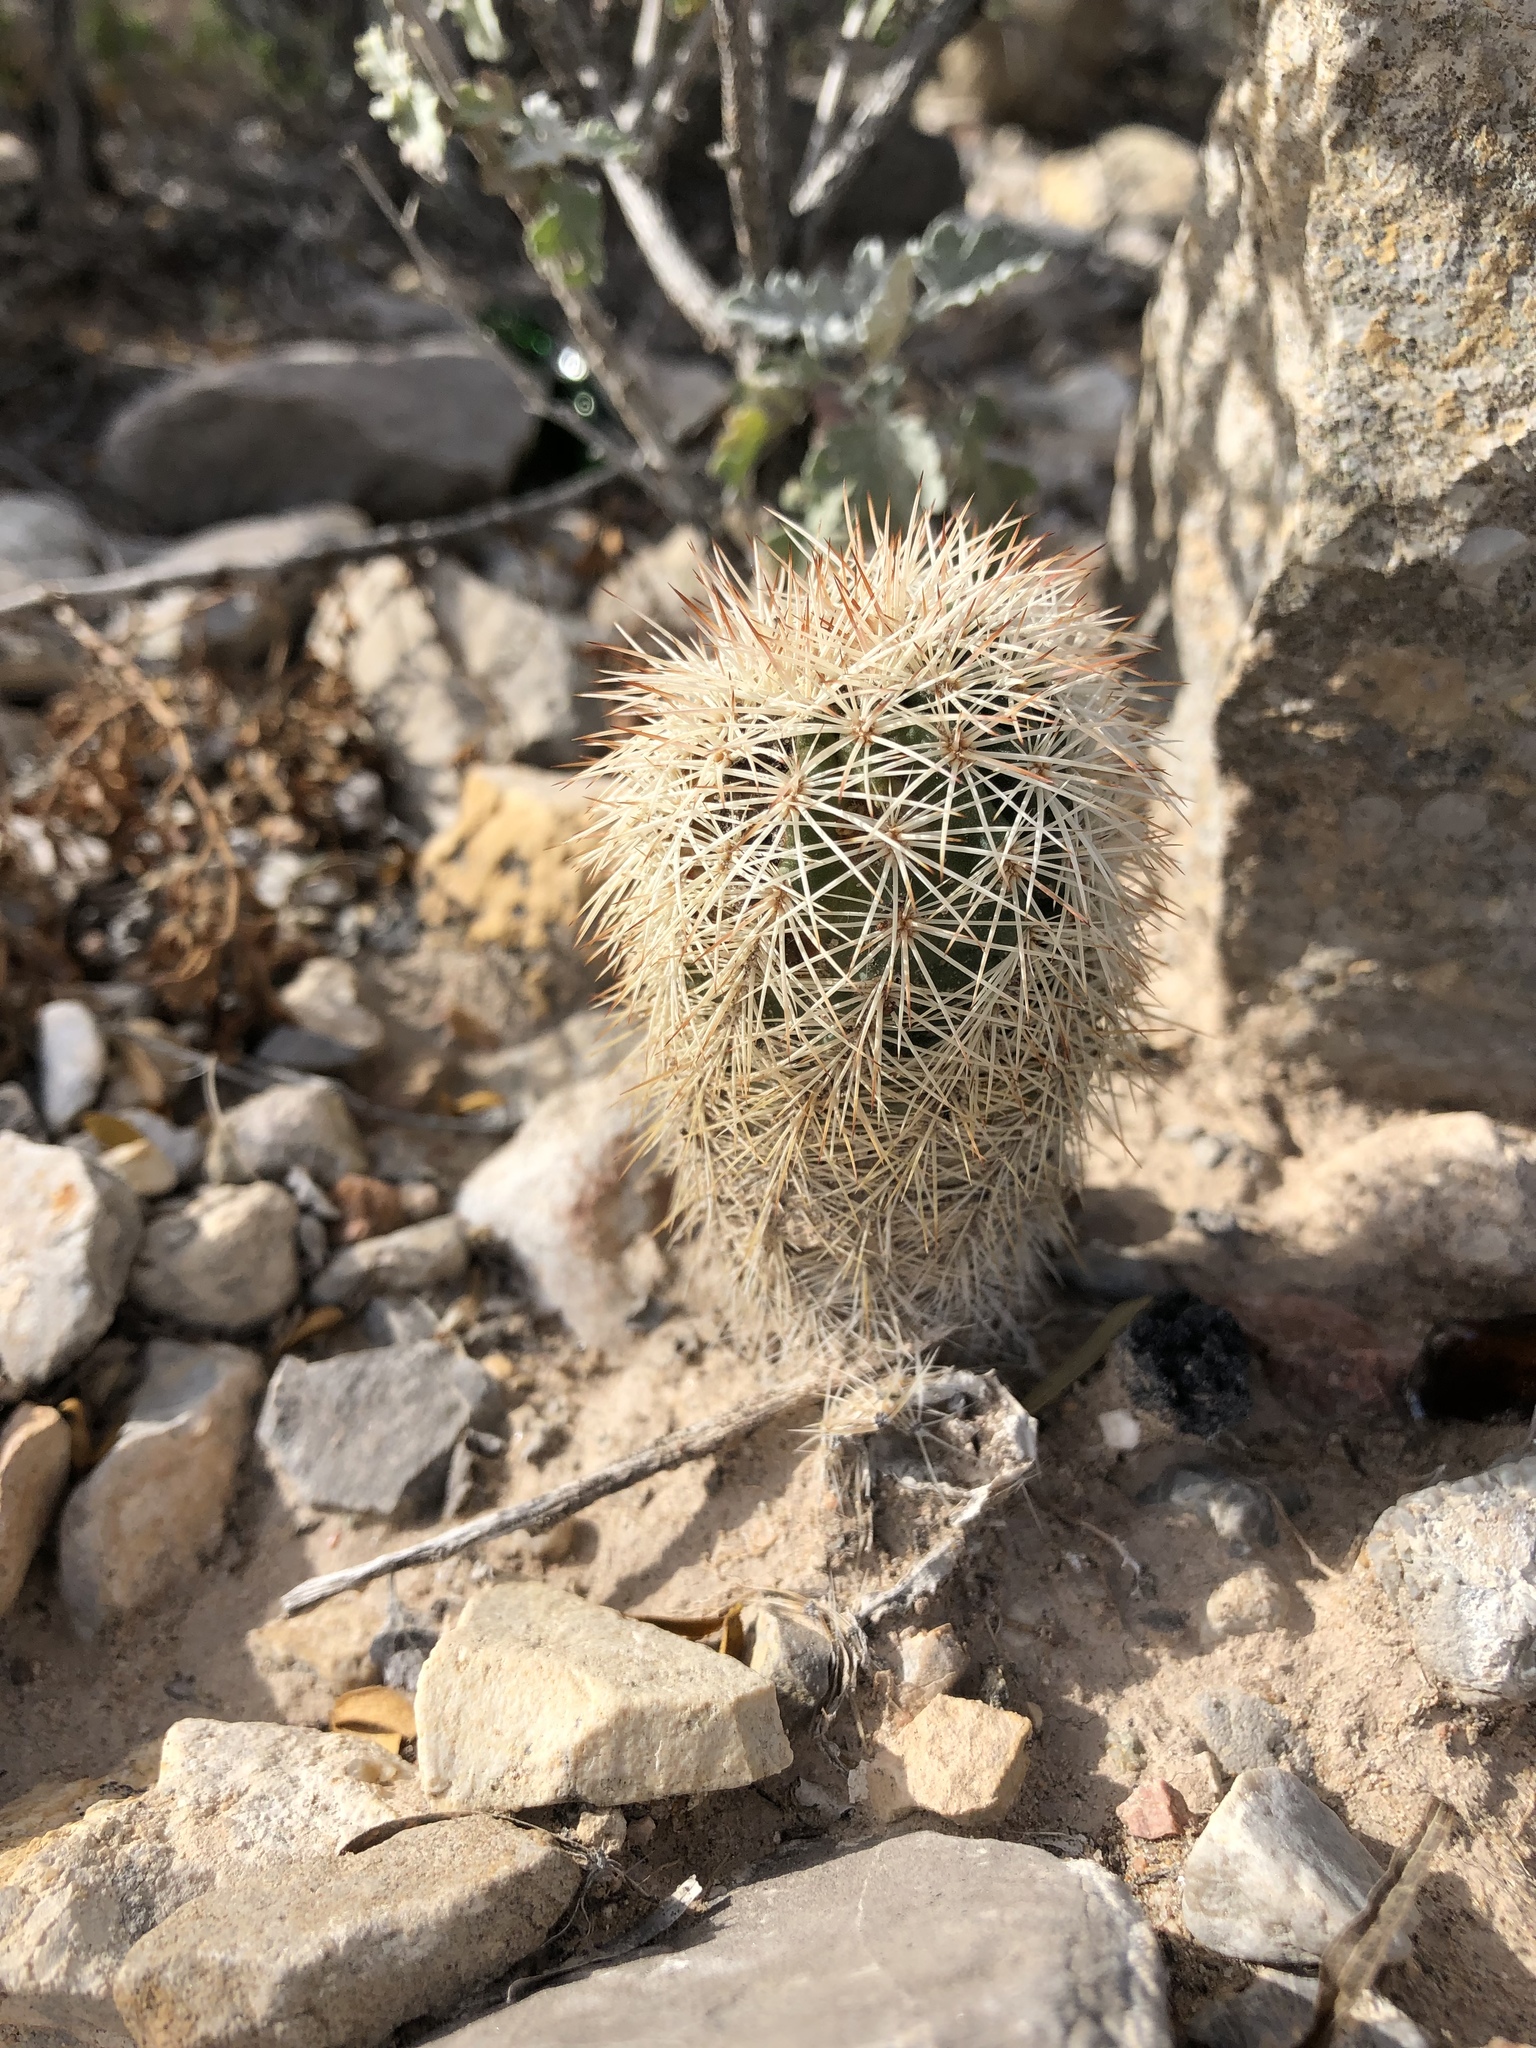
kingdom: Plantae
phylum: Tracheophyta
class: Magnoliopsida
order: Caryophyllales
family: Cactaceae
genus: Echinocereus
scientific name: Echinocereus dasyacanthus
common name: Spiny hedgehog cactus
